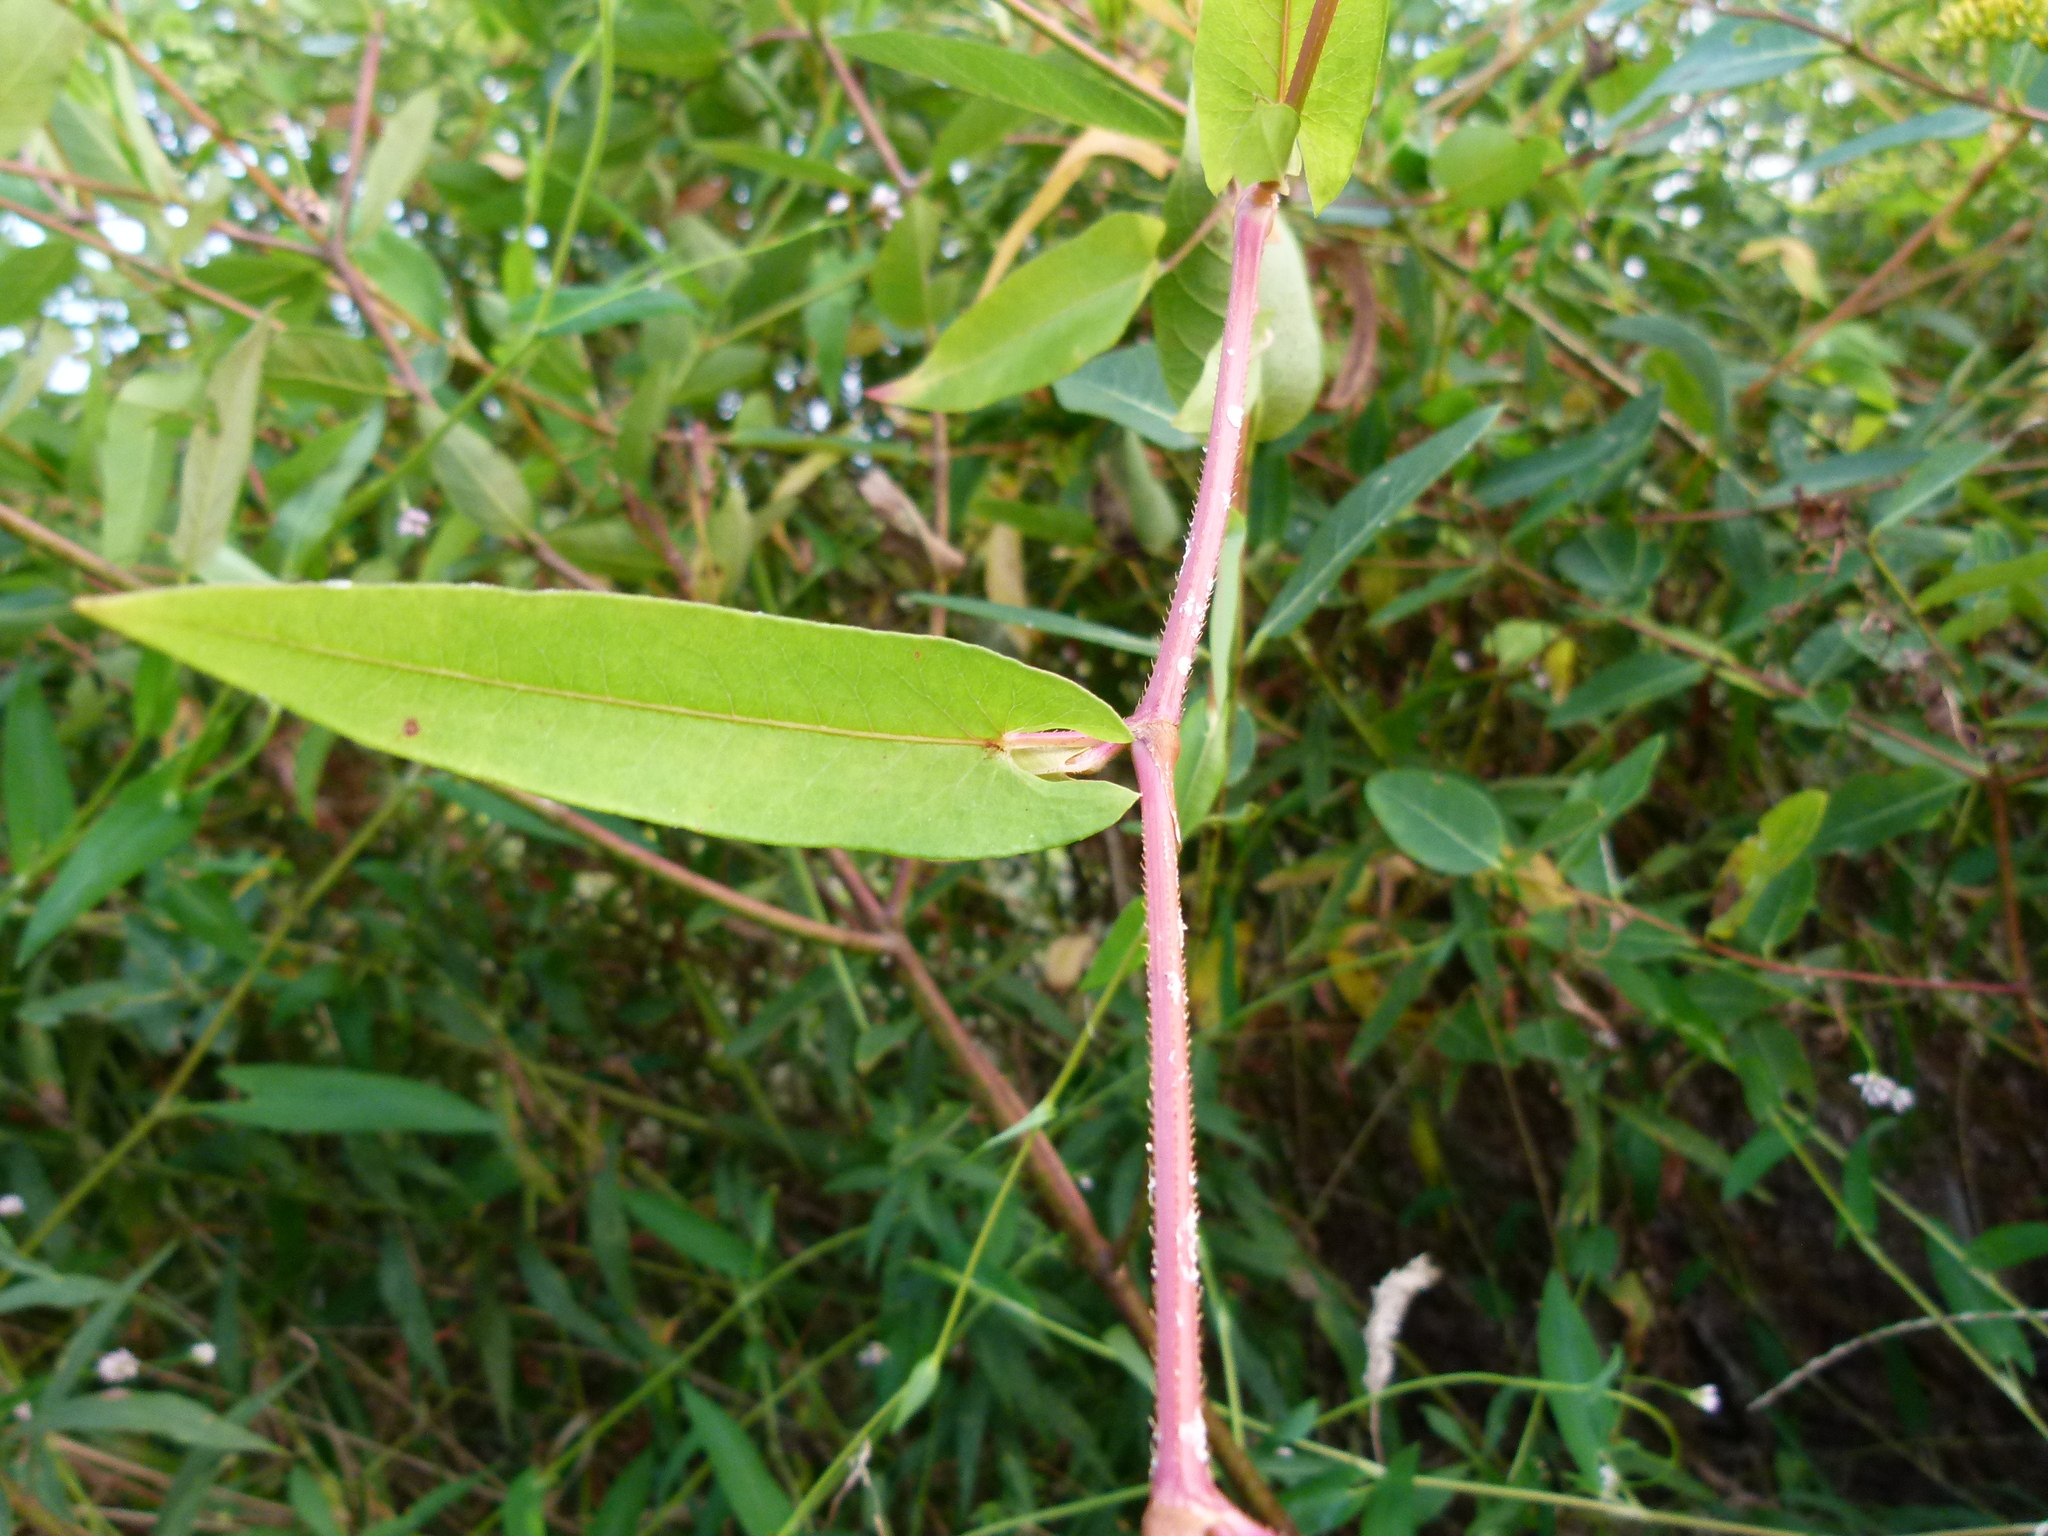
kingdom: Plantae
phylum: Tracheophyta
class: Magnoliopsida
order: Caryophyllales
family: Polygonaceae
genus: Persicaria
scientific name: Persicaria sagittata
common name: American tearthumb
